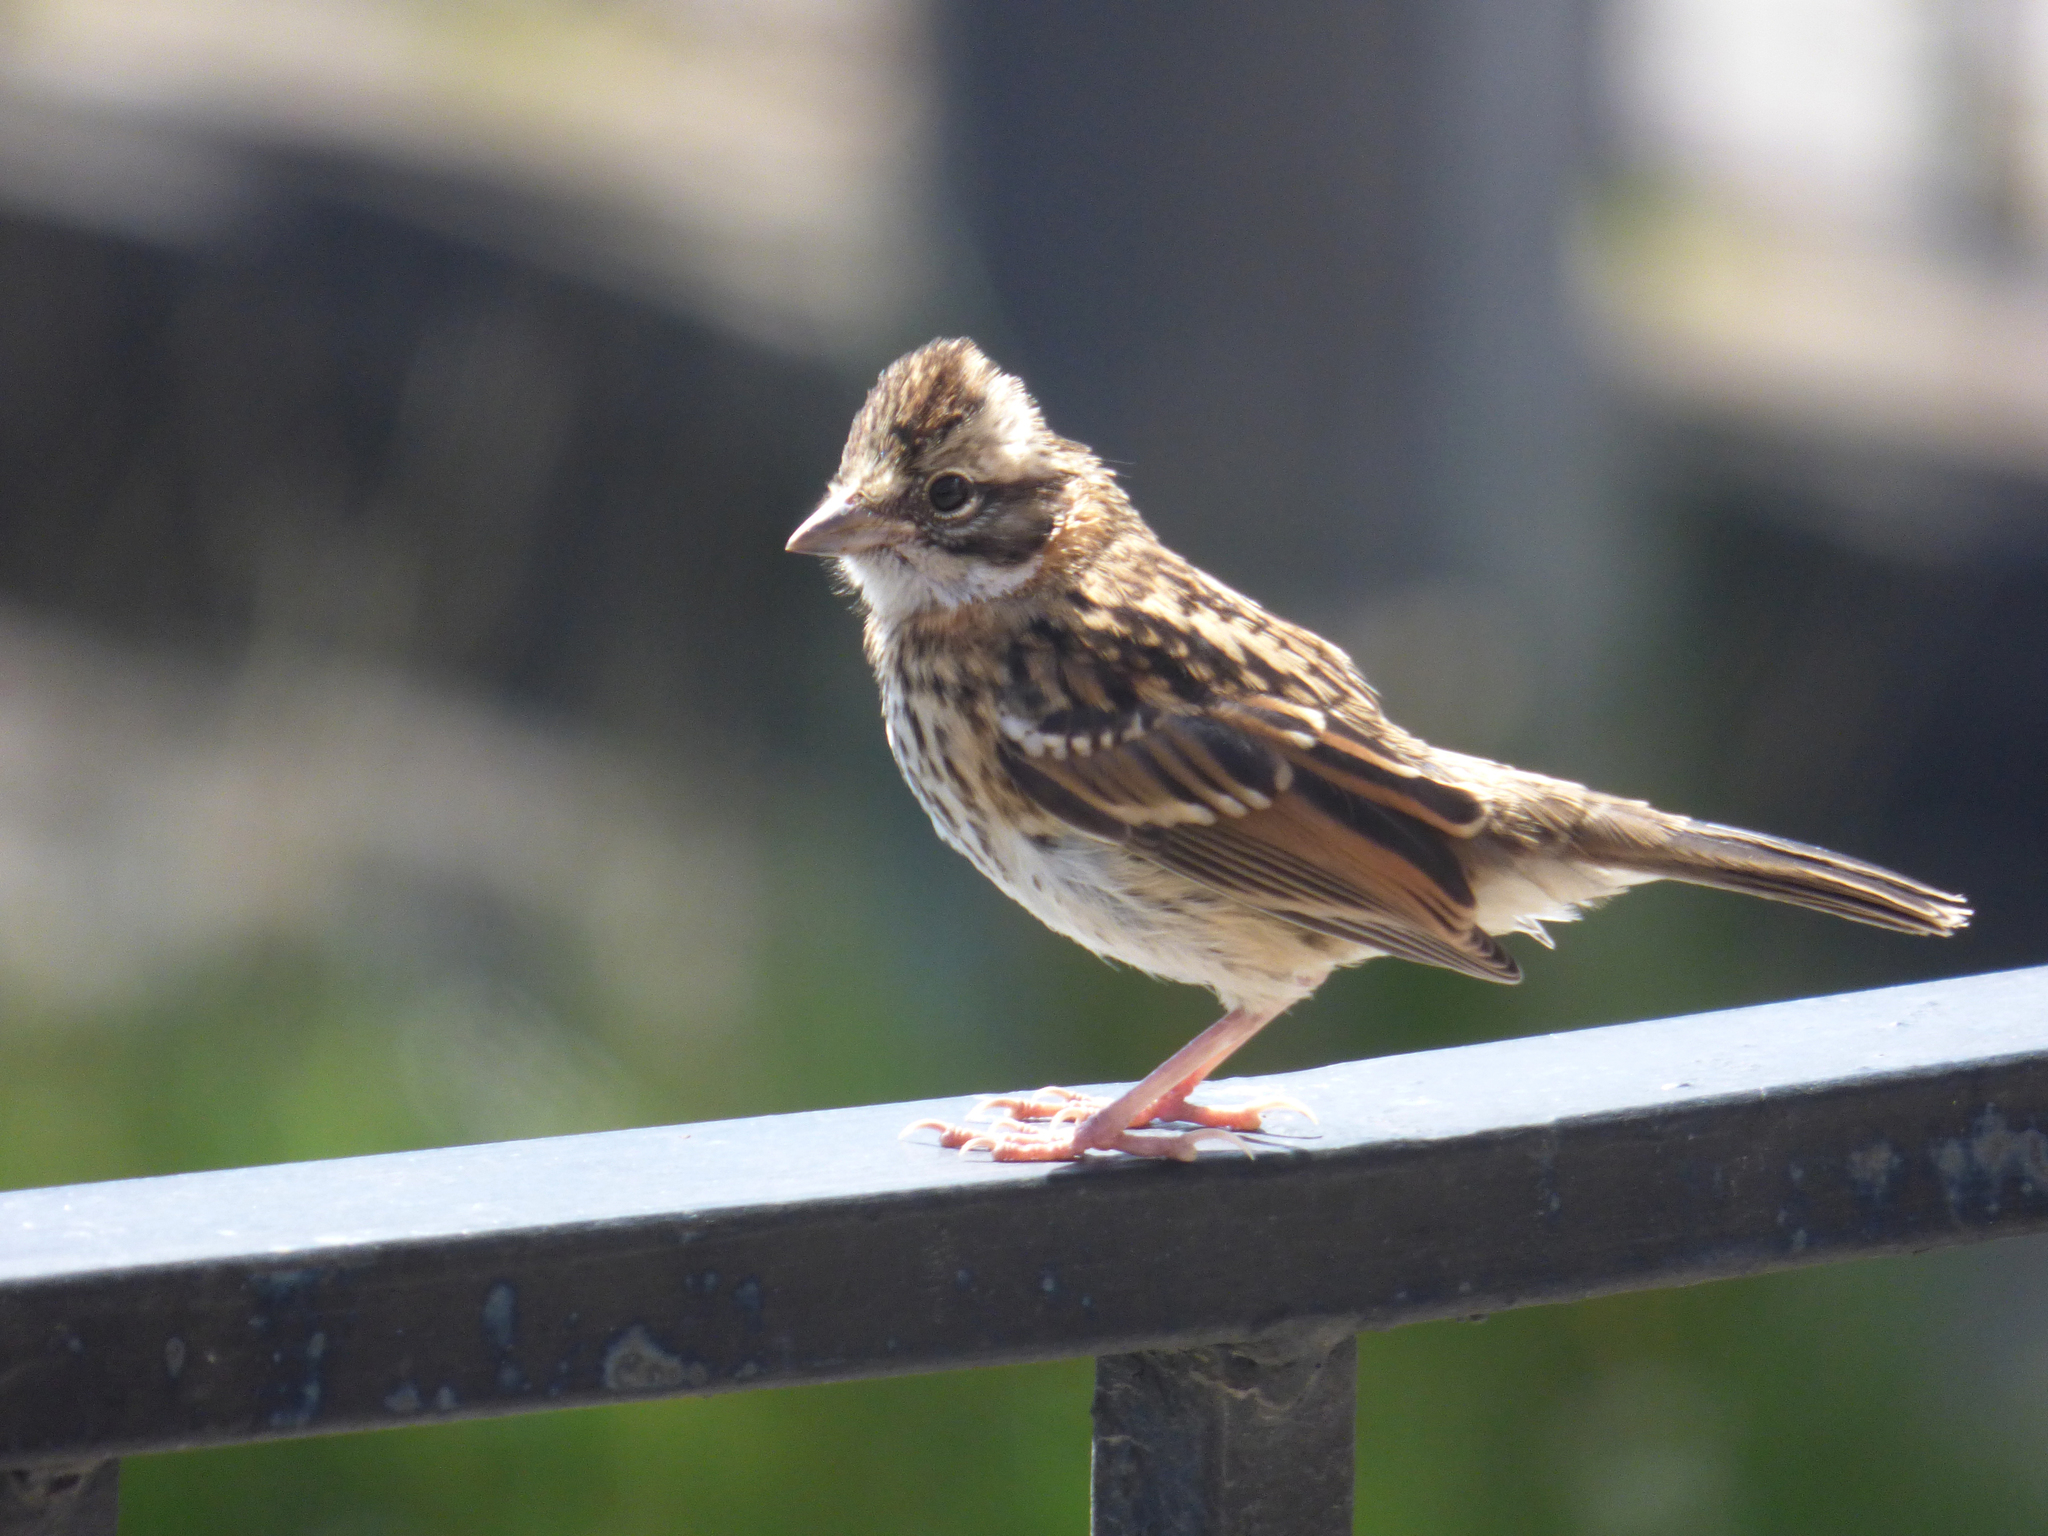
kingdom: Animalia
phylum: Chordata
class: Aves
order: Passeriformes
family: Passerellidae
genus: Zonotrichia
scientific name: Zonotrichia capensis
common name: Rufous-collared sparrow
